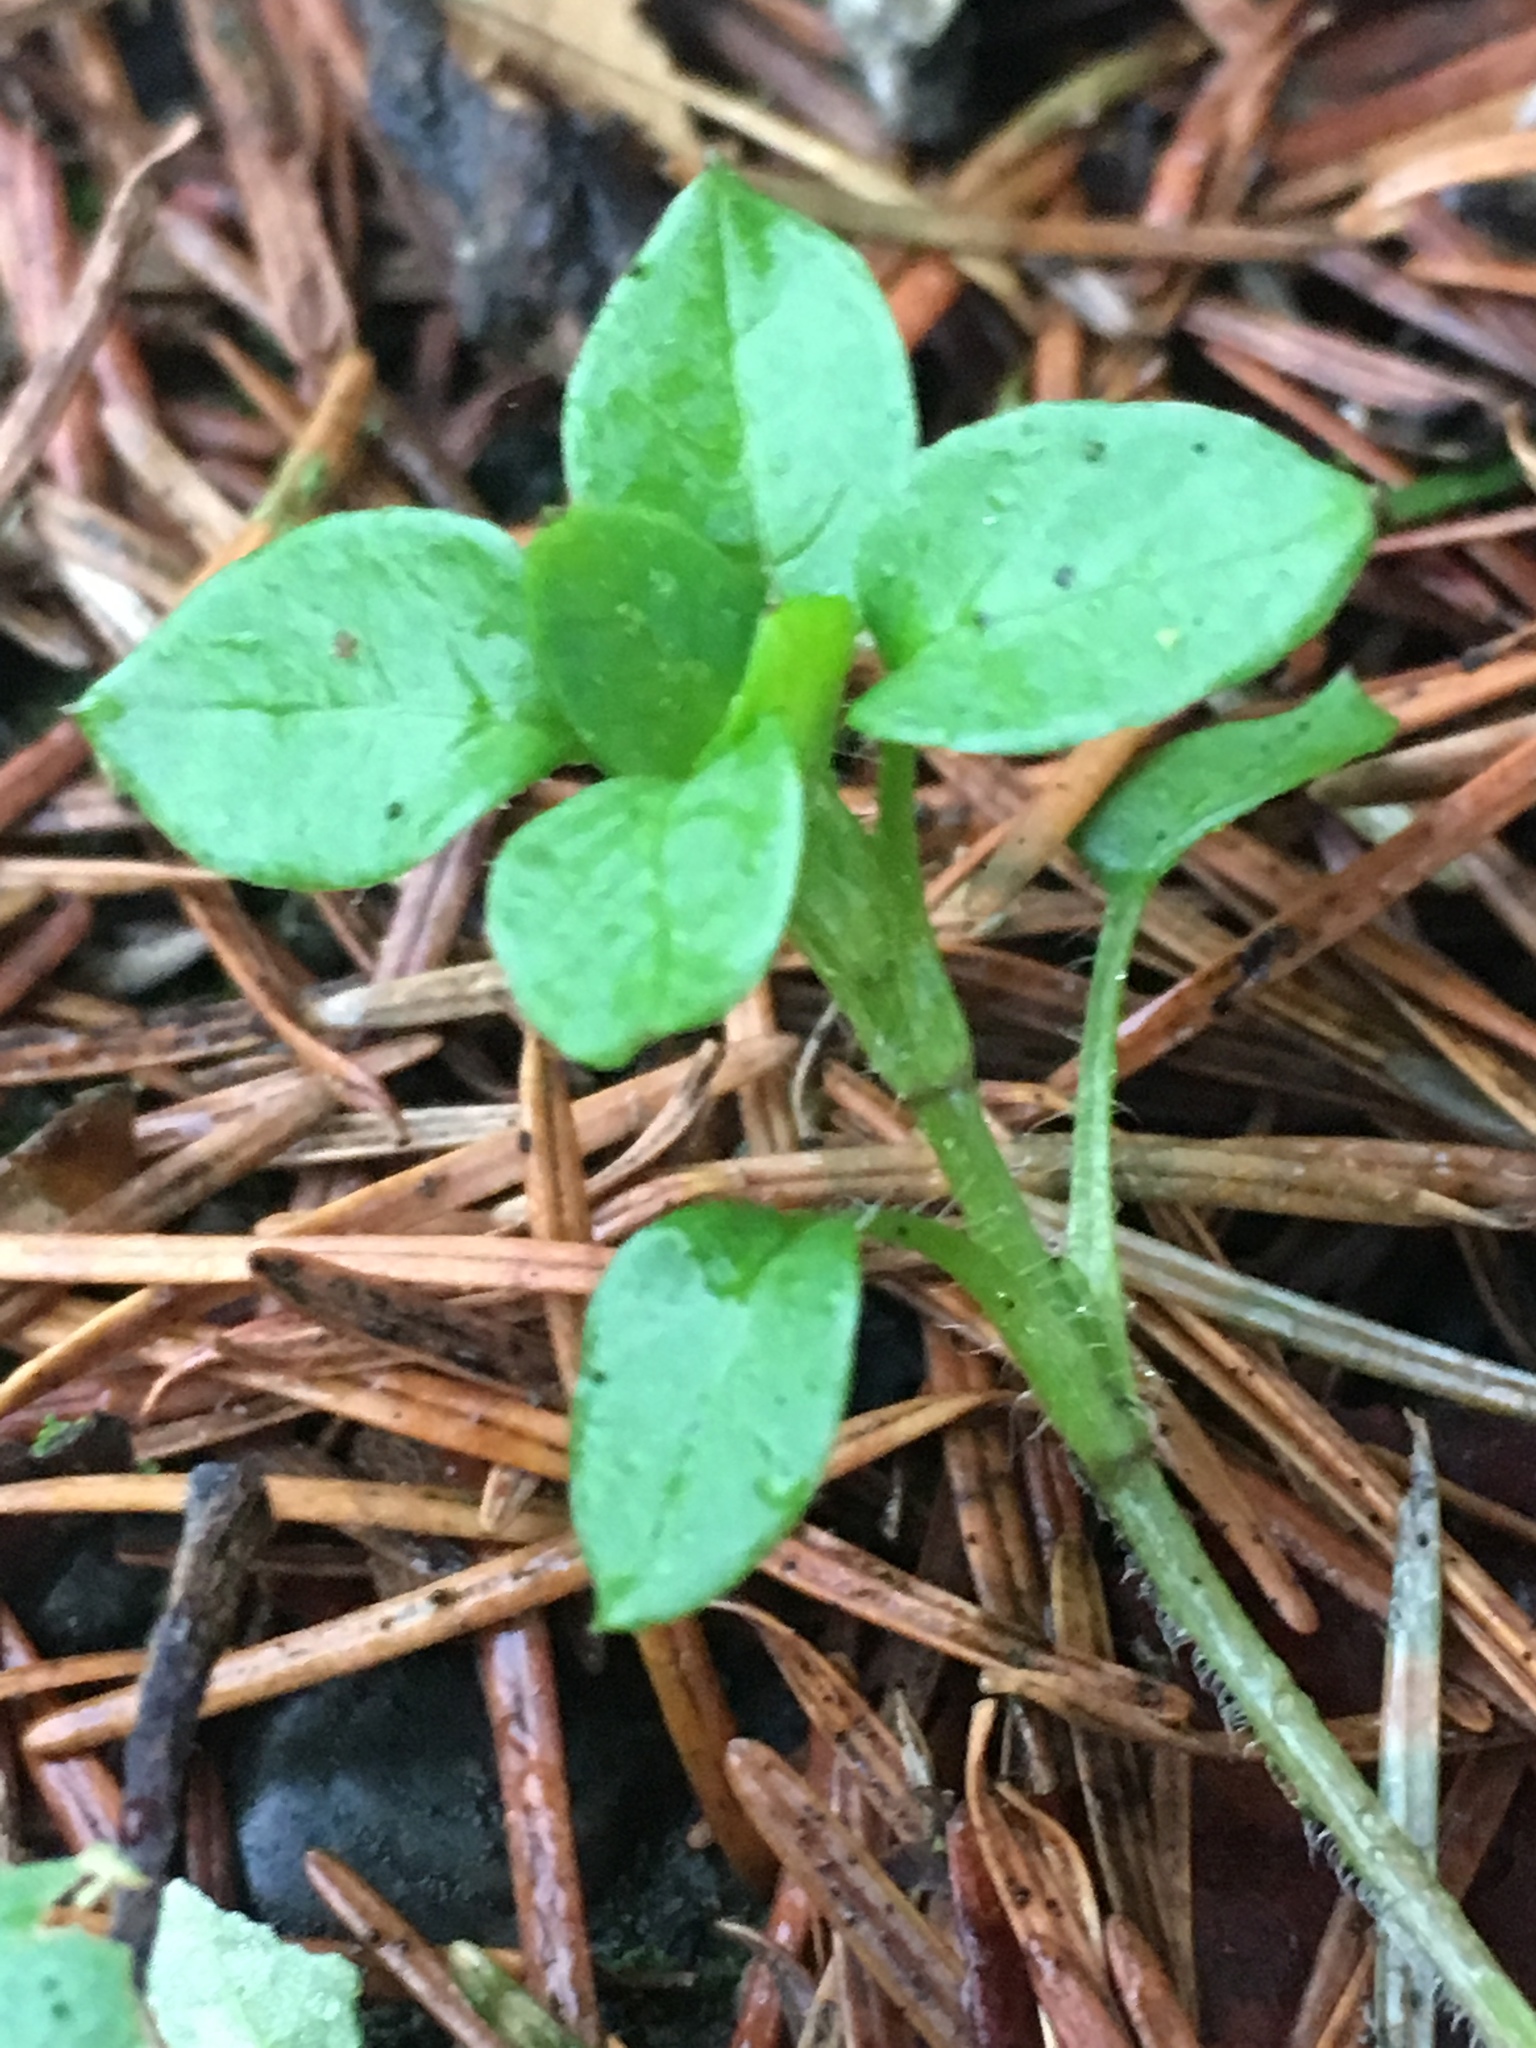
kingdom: Plantae
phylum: Tracheophyta
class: Magnoliopsida
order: Caryophyllales
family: Caryophyllaceae
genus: Stellaria
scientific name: Stellaria media
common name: Common chickweed
